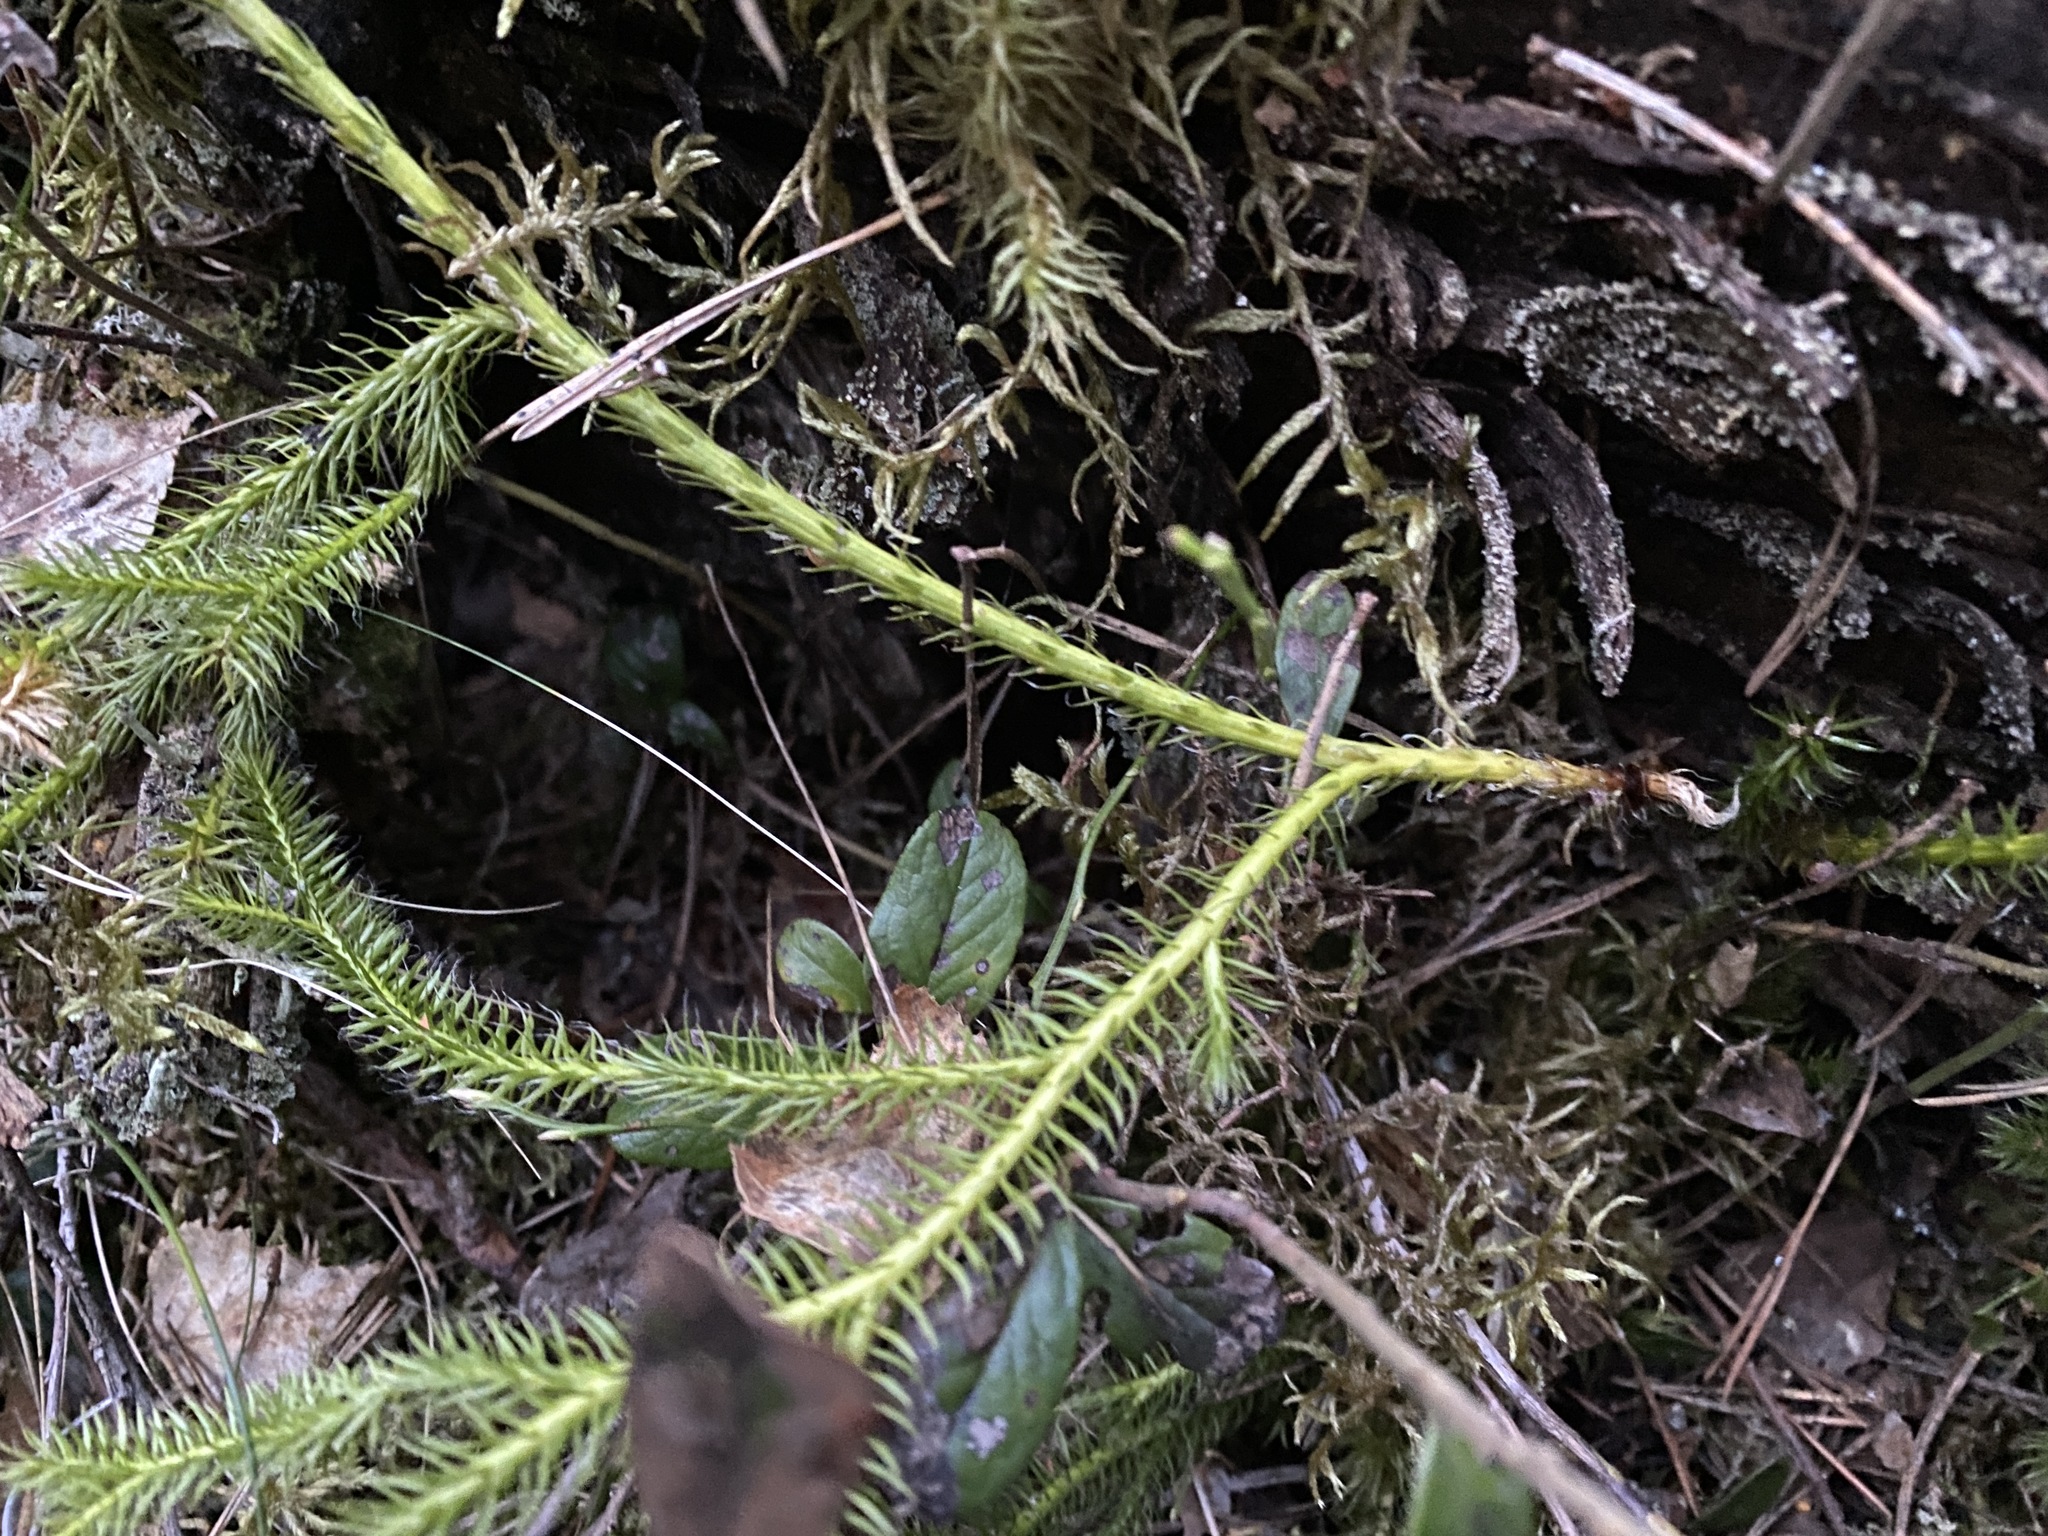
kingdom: Plantae
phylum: Tracheophyta
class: Lycopodiopsida
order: Lycopodiales
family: Lycopodiaceae
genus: Lycopodium
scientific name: Lycopodium clavatum
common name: Stag's-horn clubmoss
